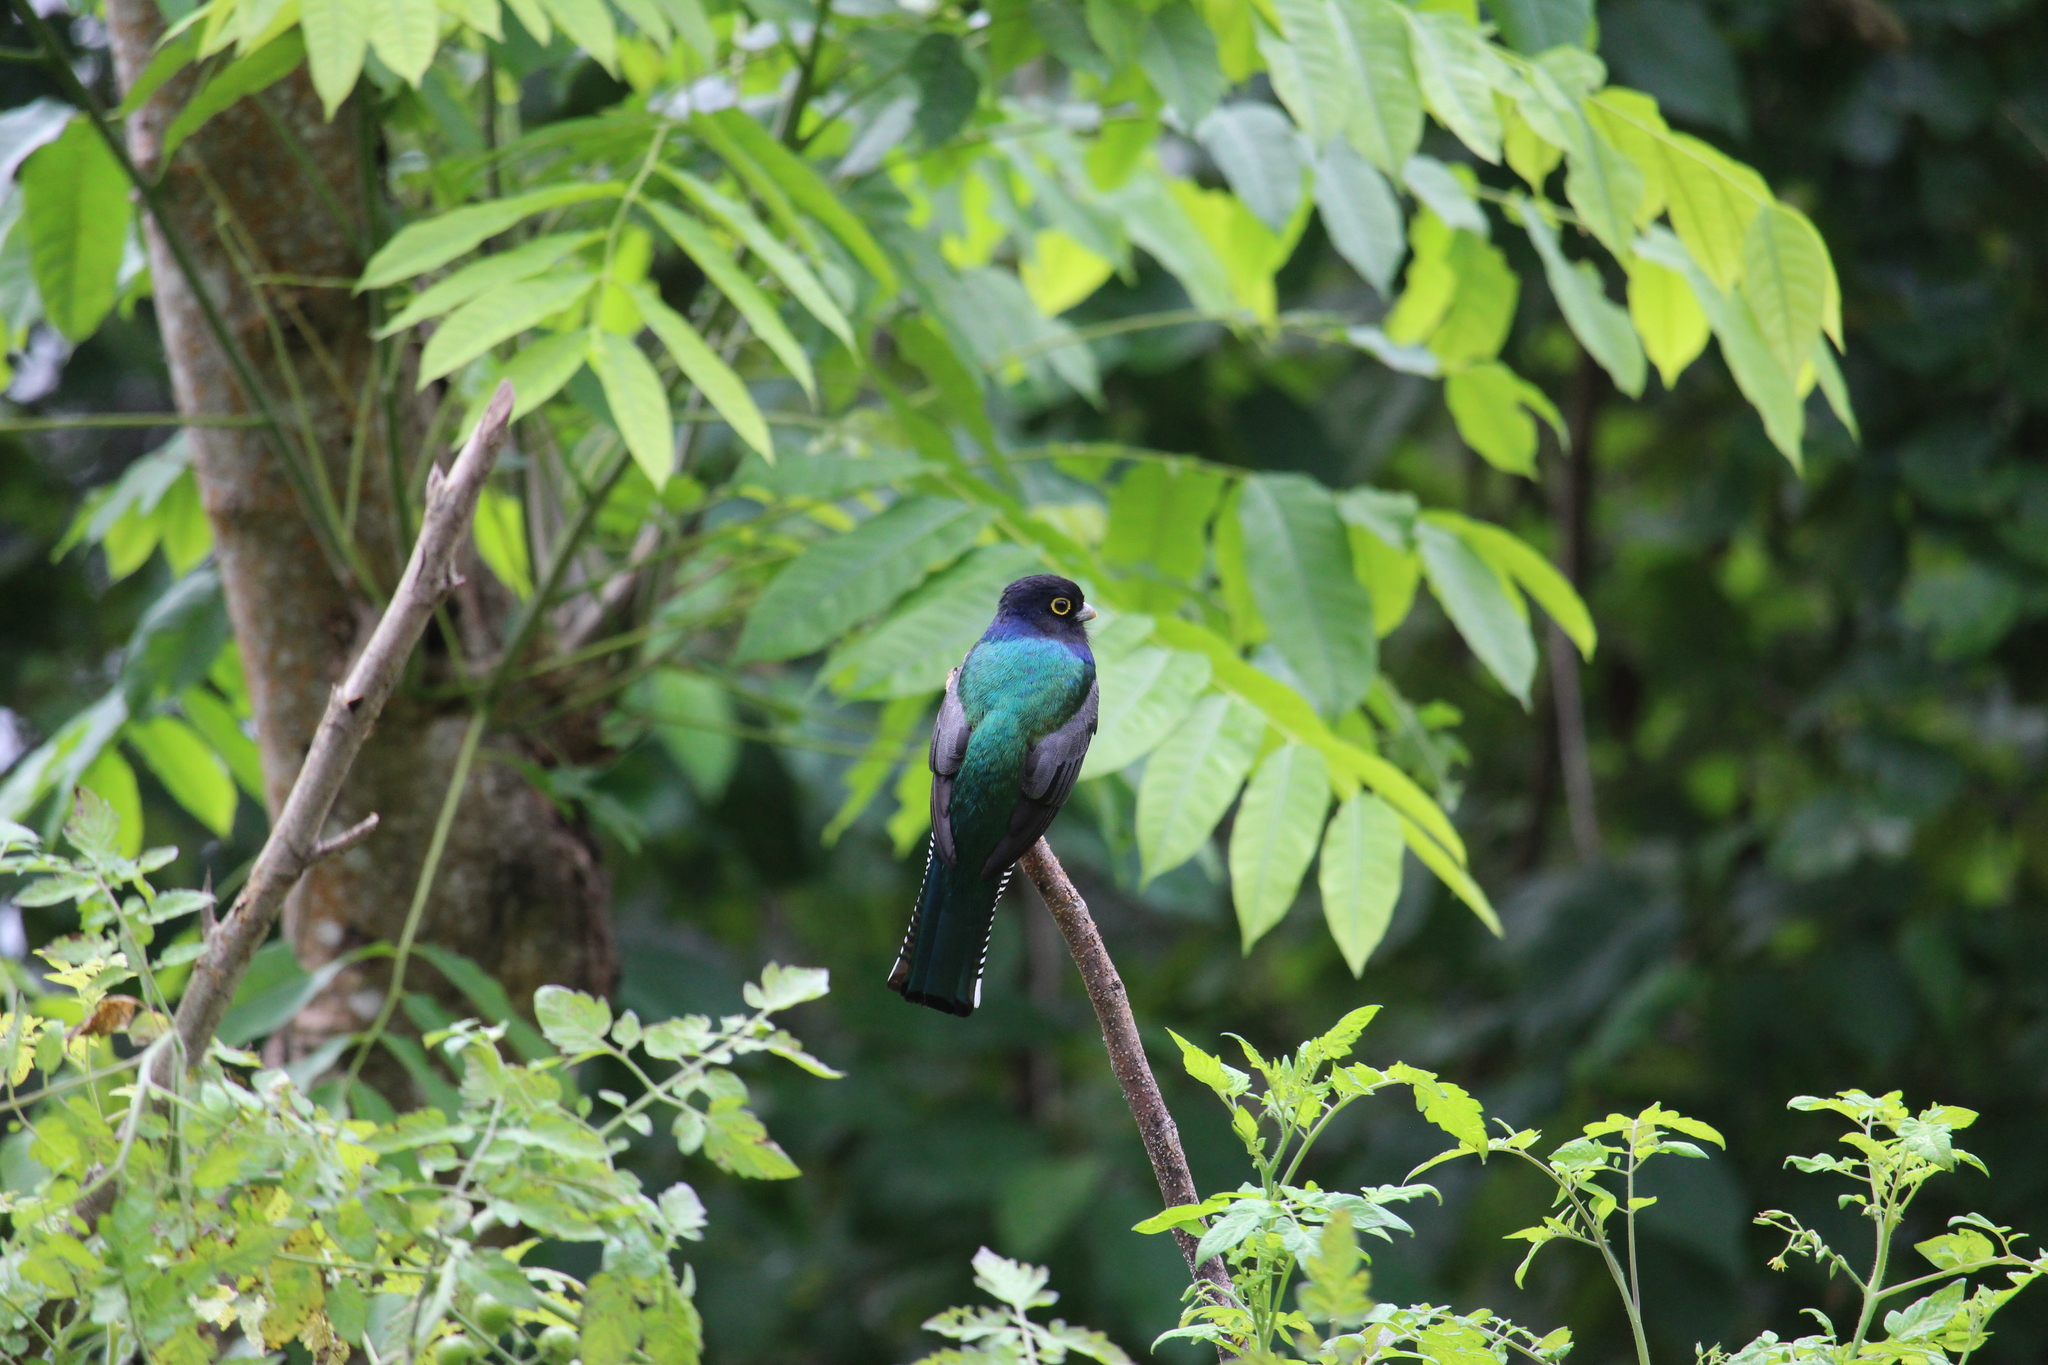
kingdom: Animalia
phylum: Chordata
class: Aves
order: Trogoniformes
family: Trogonidae
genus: Trogon
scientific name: Trogon caligatus
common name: Gartered trogon
